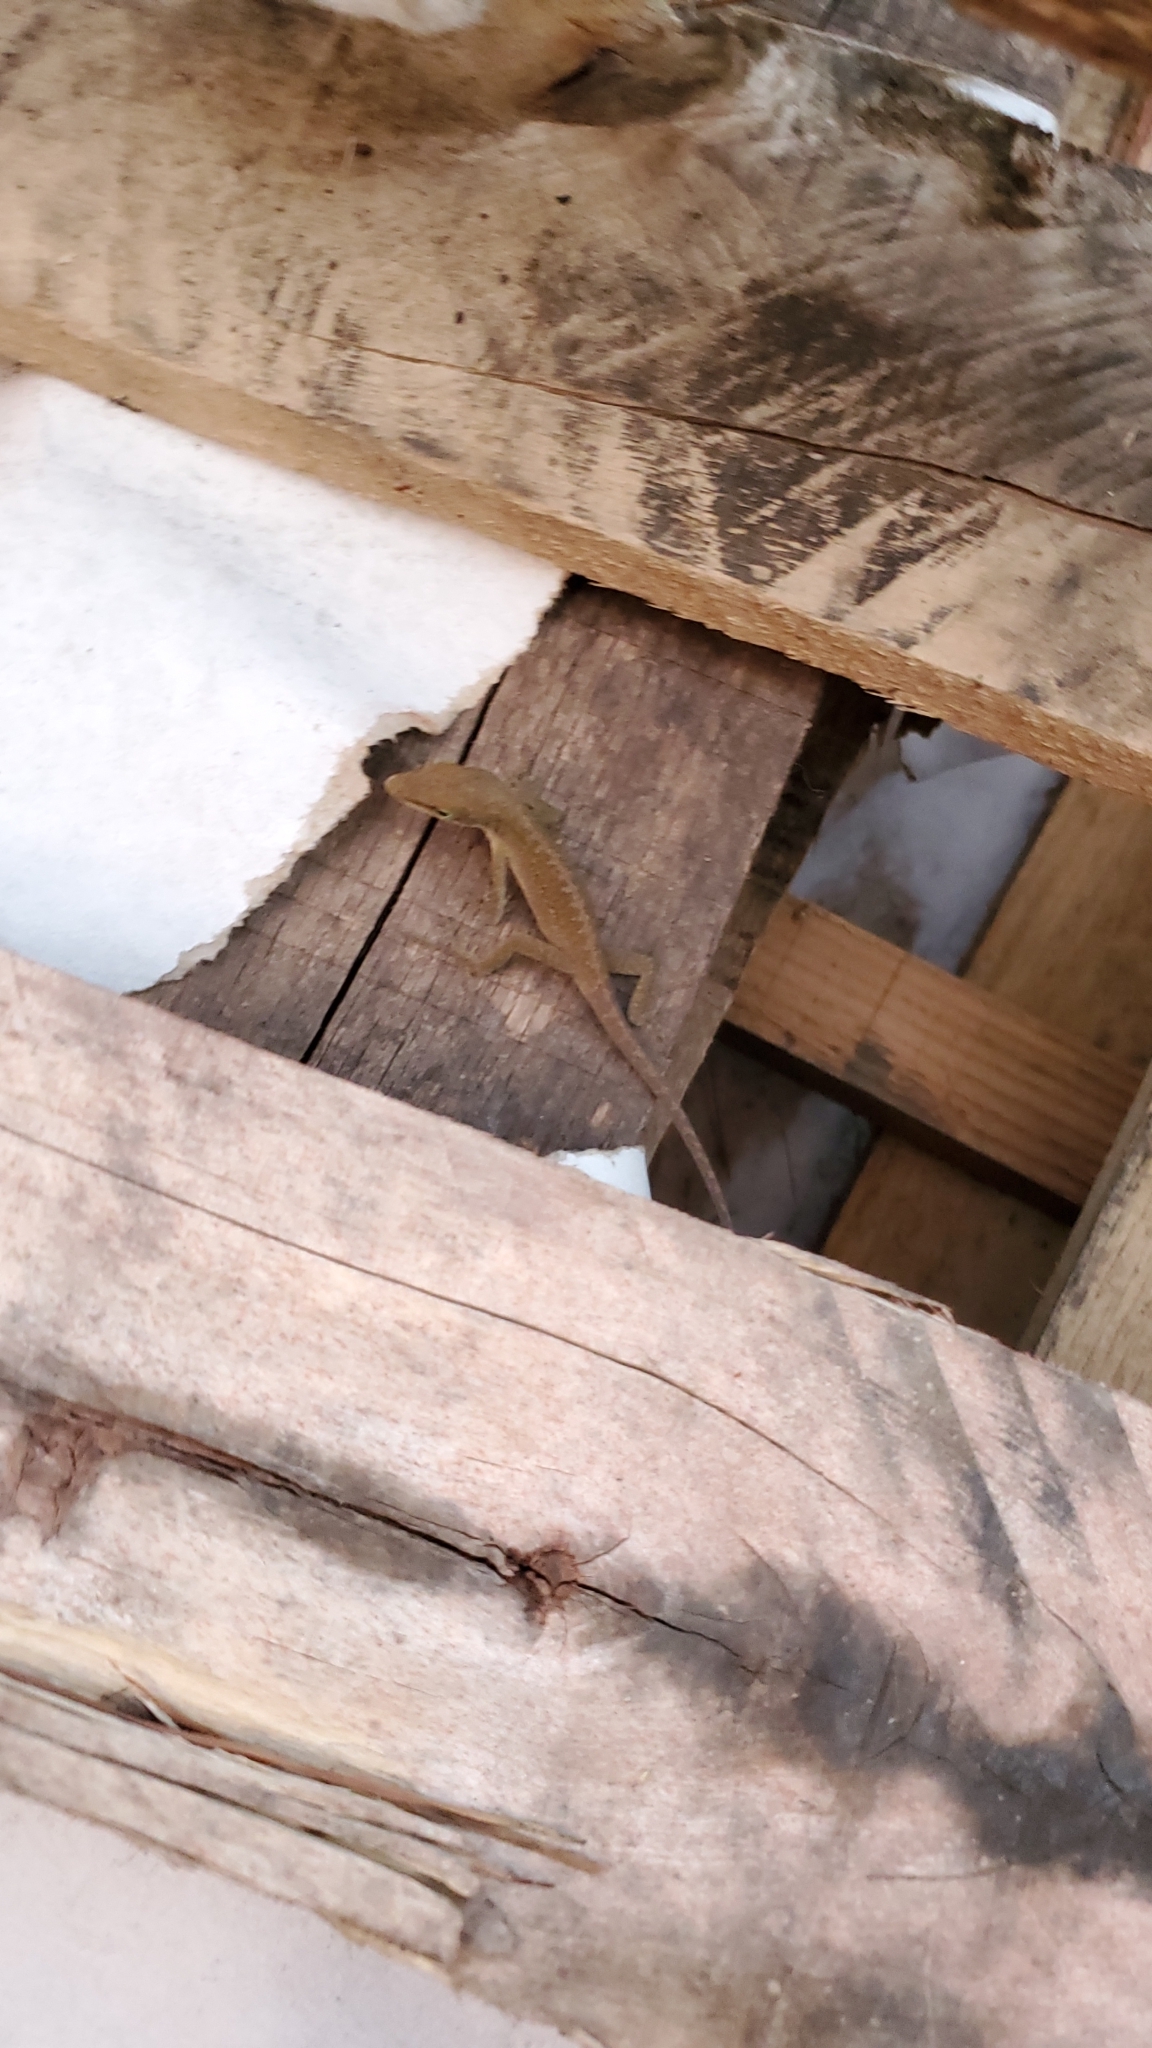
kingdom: Animalia
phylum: Chordata
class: Squamata
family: Dactyloidae
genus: Anolis
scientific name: Anolis carolinensis
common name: Green anole
